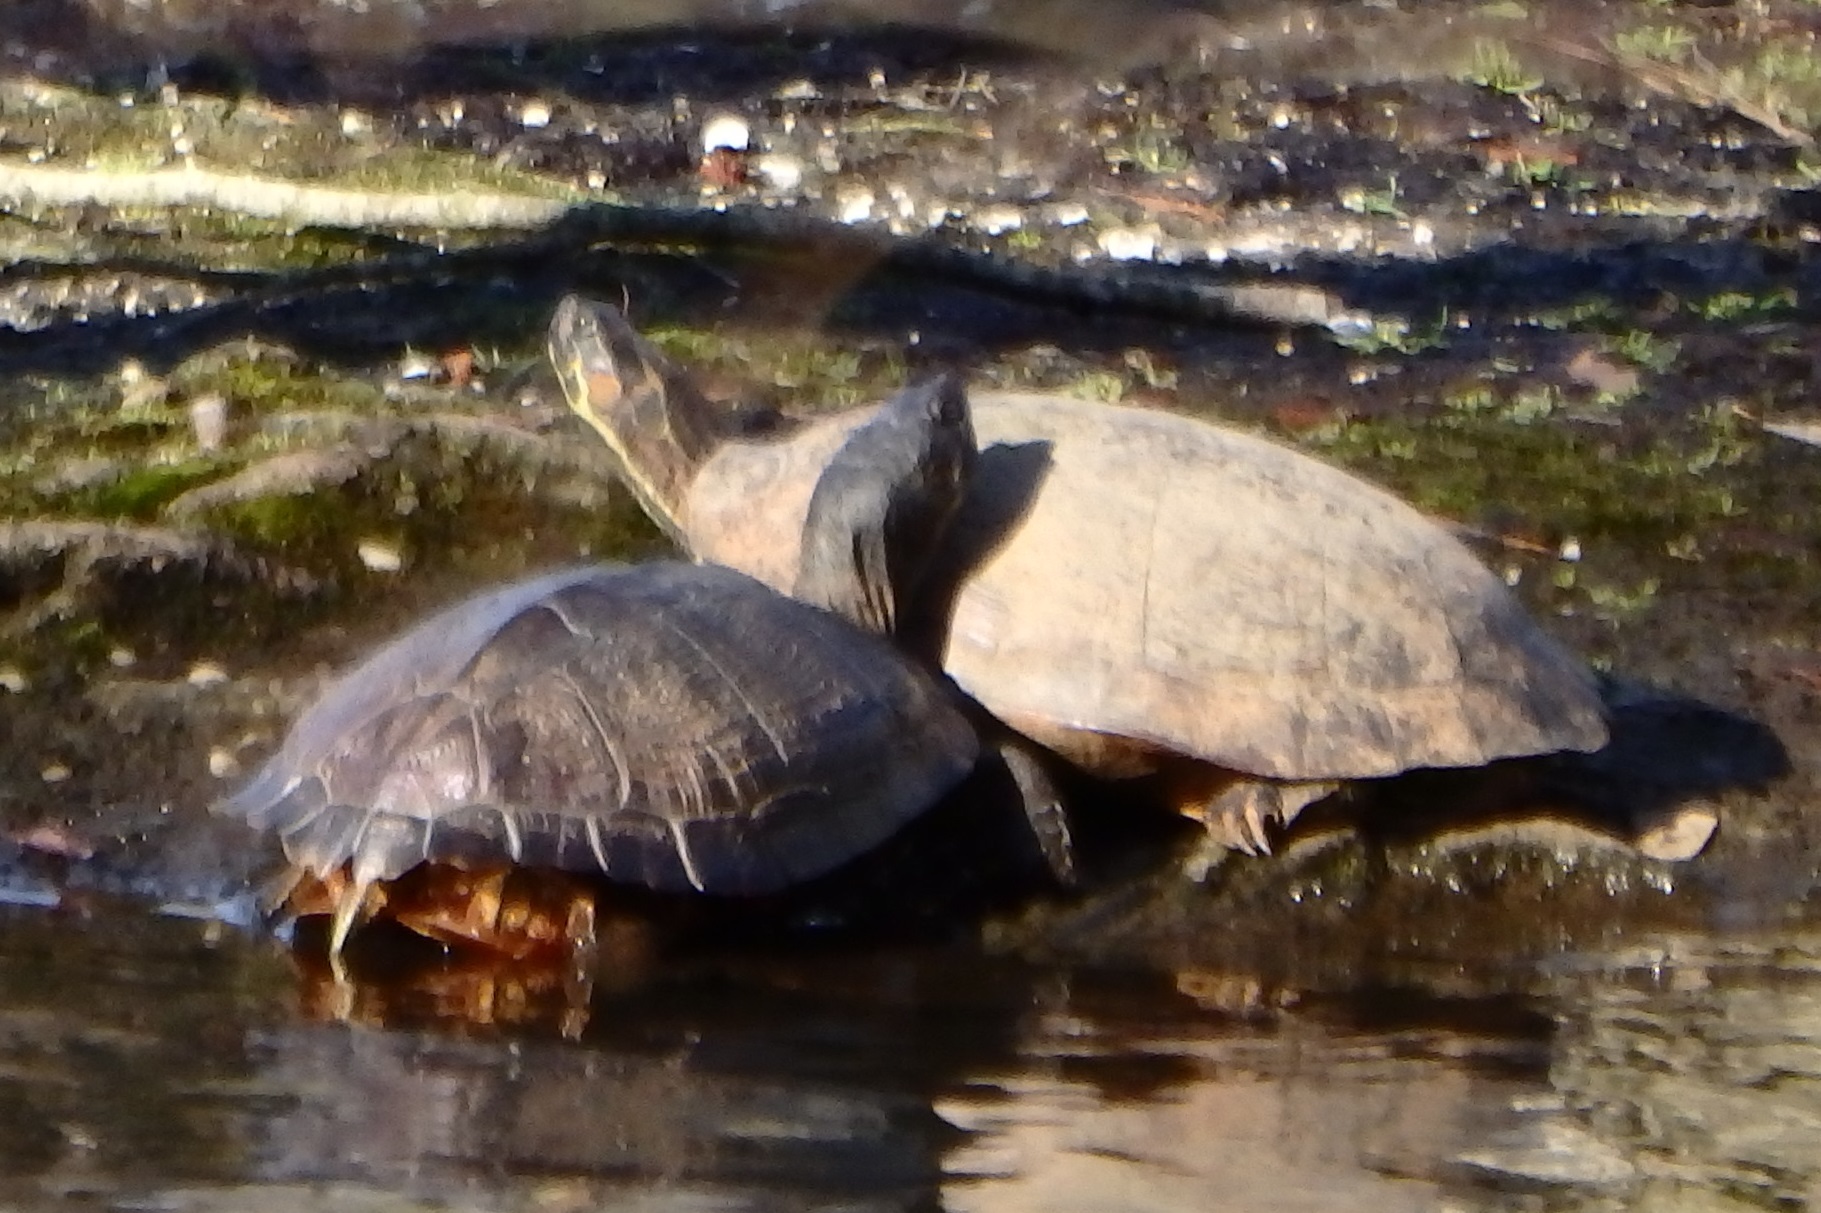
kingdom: Animalia
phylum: Chordata
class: Testudines
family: Emydidae
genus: Pseudemys
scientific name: Pseudemys concinna
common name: Eastern river cooter
